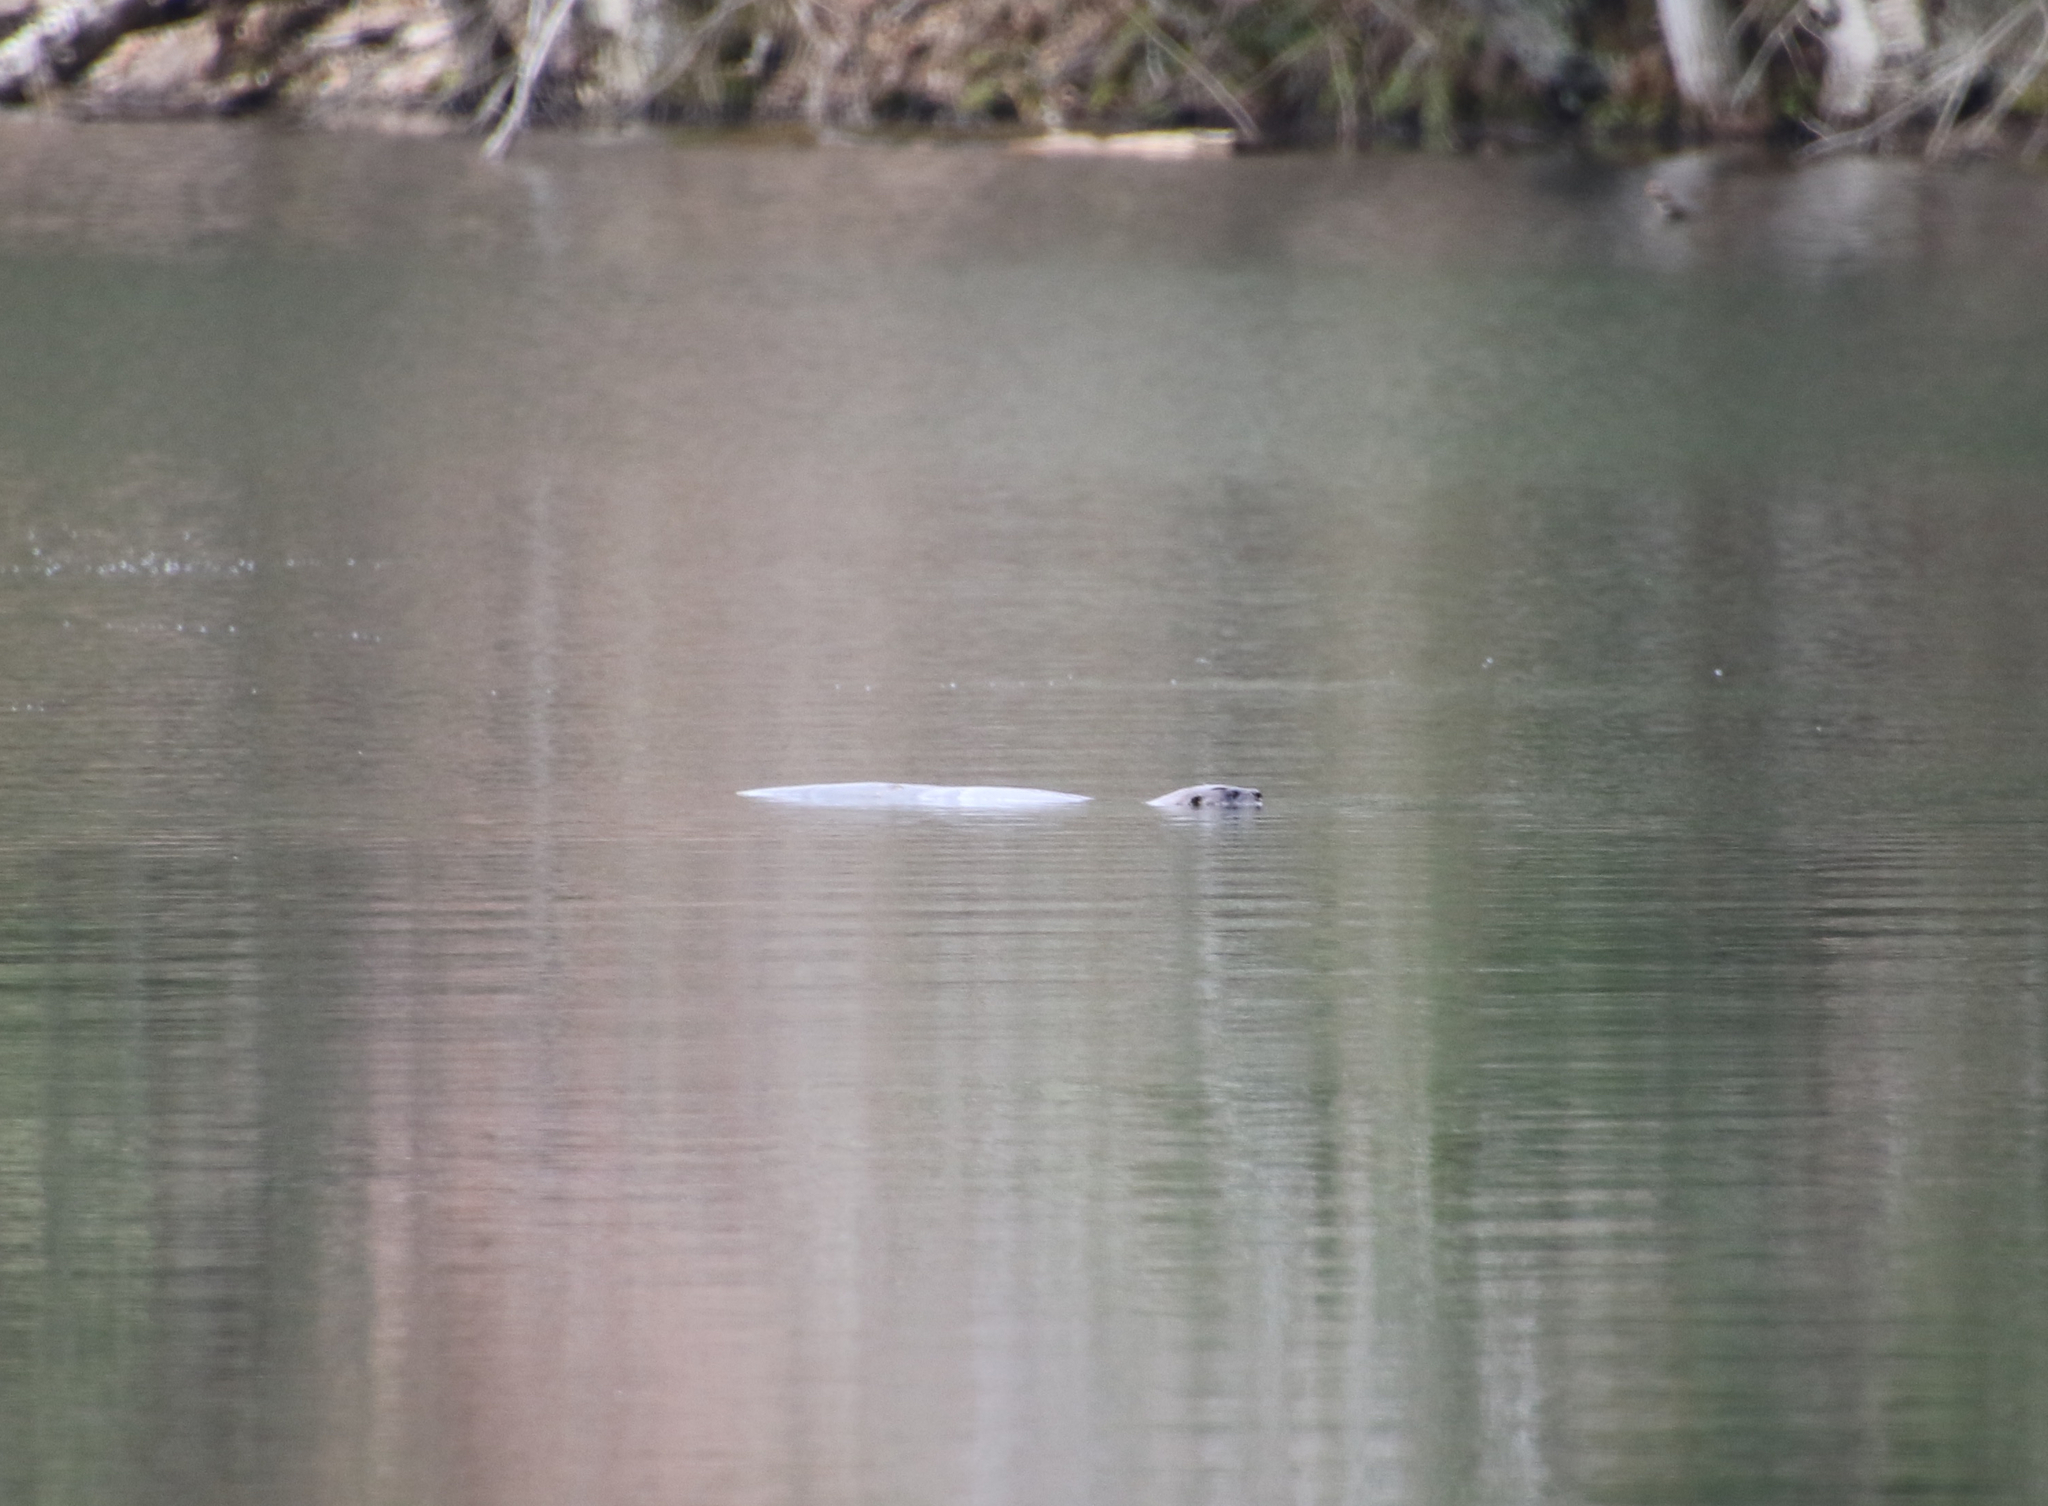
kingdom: Animalia
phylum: Chordata
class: Mammalia
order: Carnivora
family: Mustelidae
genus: Lontra
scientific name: Lontra canadensis
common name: North american river otter
